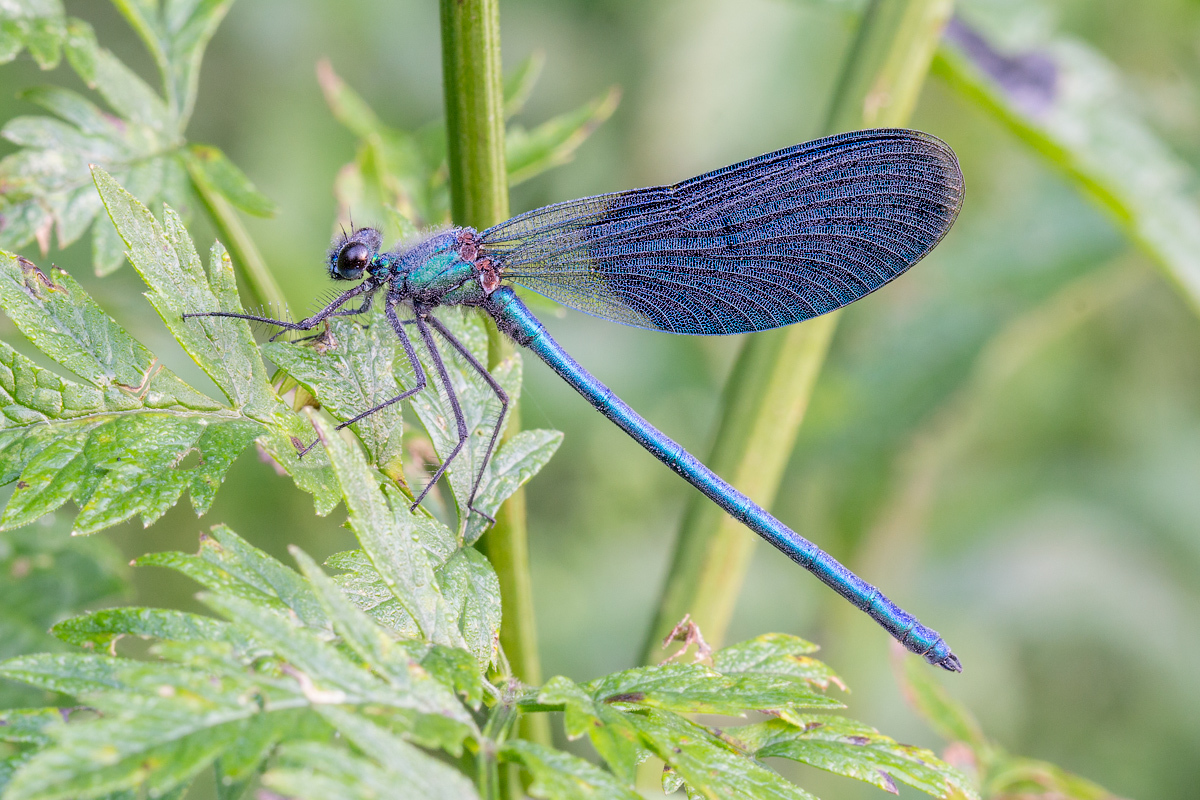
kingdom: Animalia
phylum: Arthropoda
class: Insecta
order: Odonata
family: Calopterygidae
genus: Calopteryx
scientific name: Calopteryx splendens
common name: Banded demoiselle
